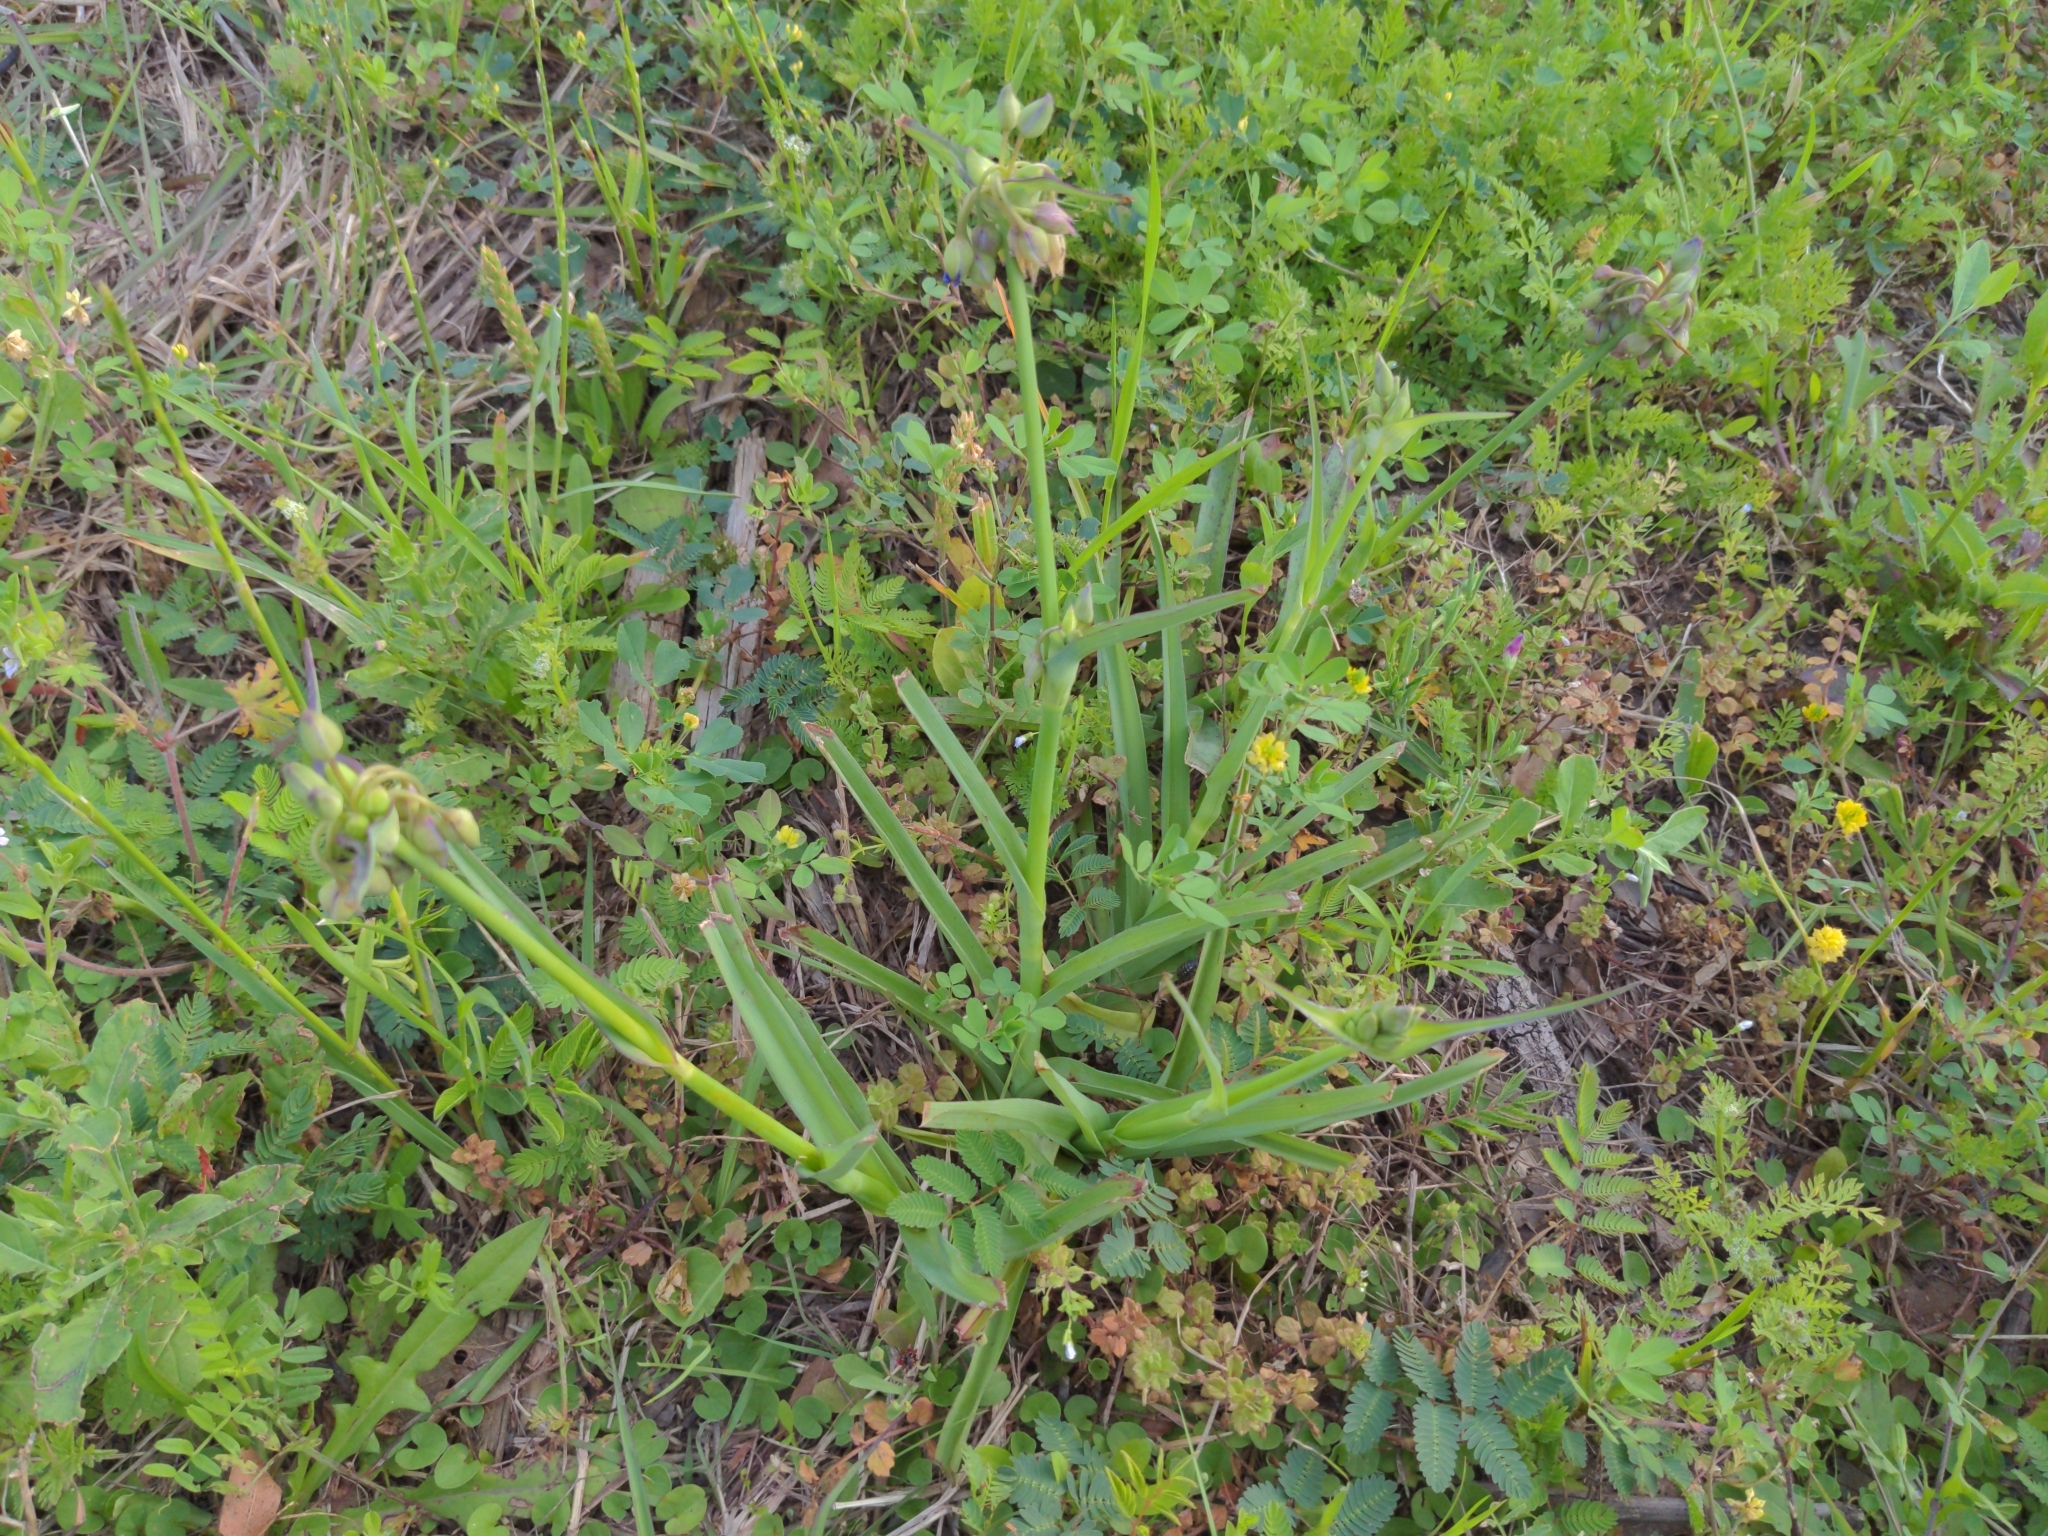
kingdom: Plantae
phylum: Tracheophyta
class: Liliopsida
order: Commelinales
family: Commelinaceae
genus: Tradescantia
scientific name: Tradescantia ohiensis
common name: Ohio spiderwort
